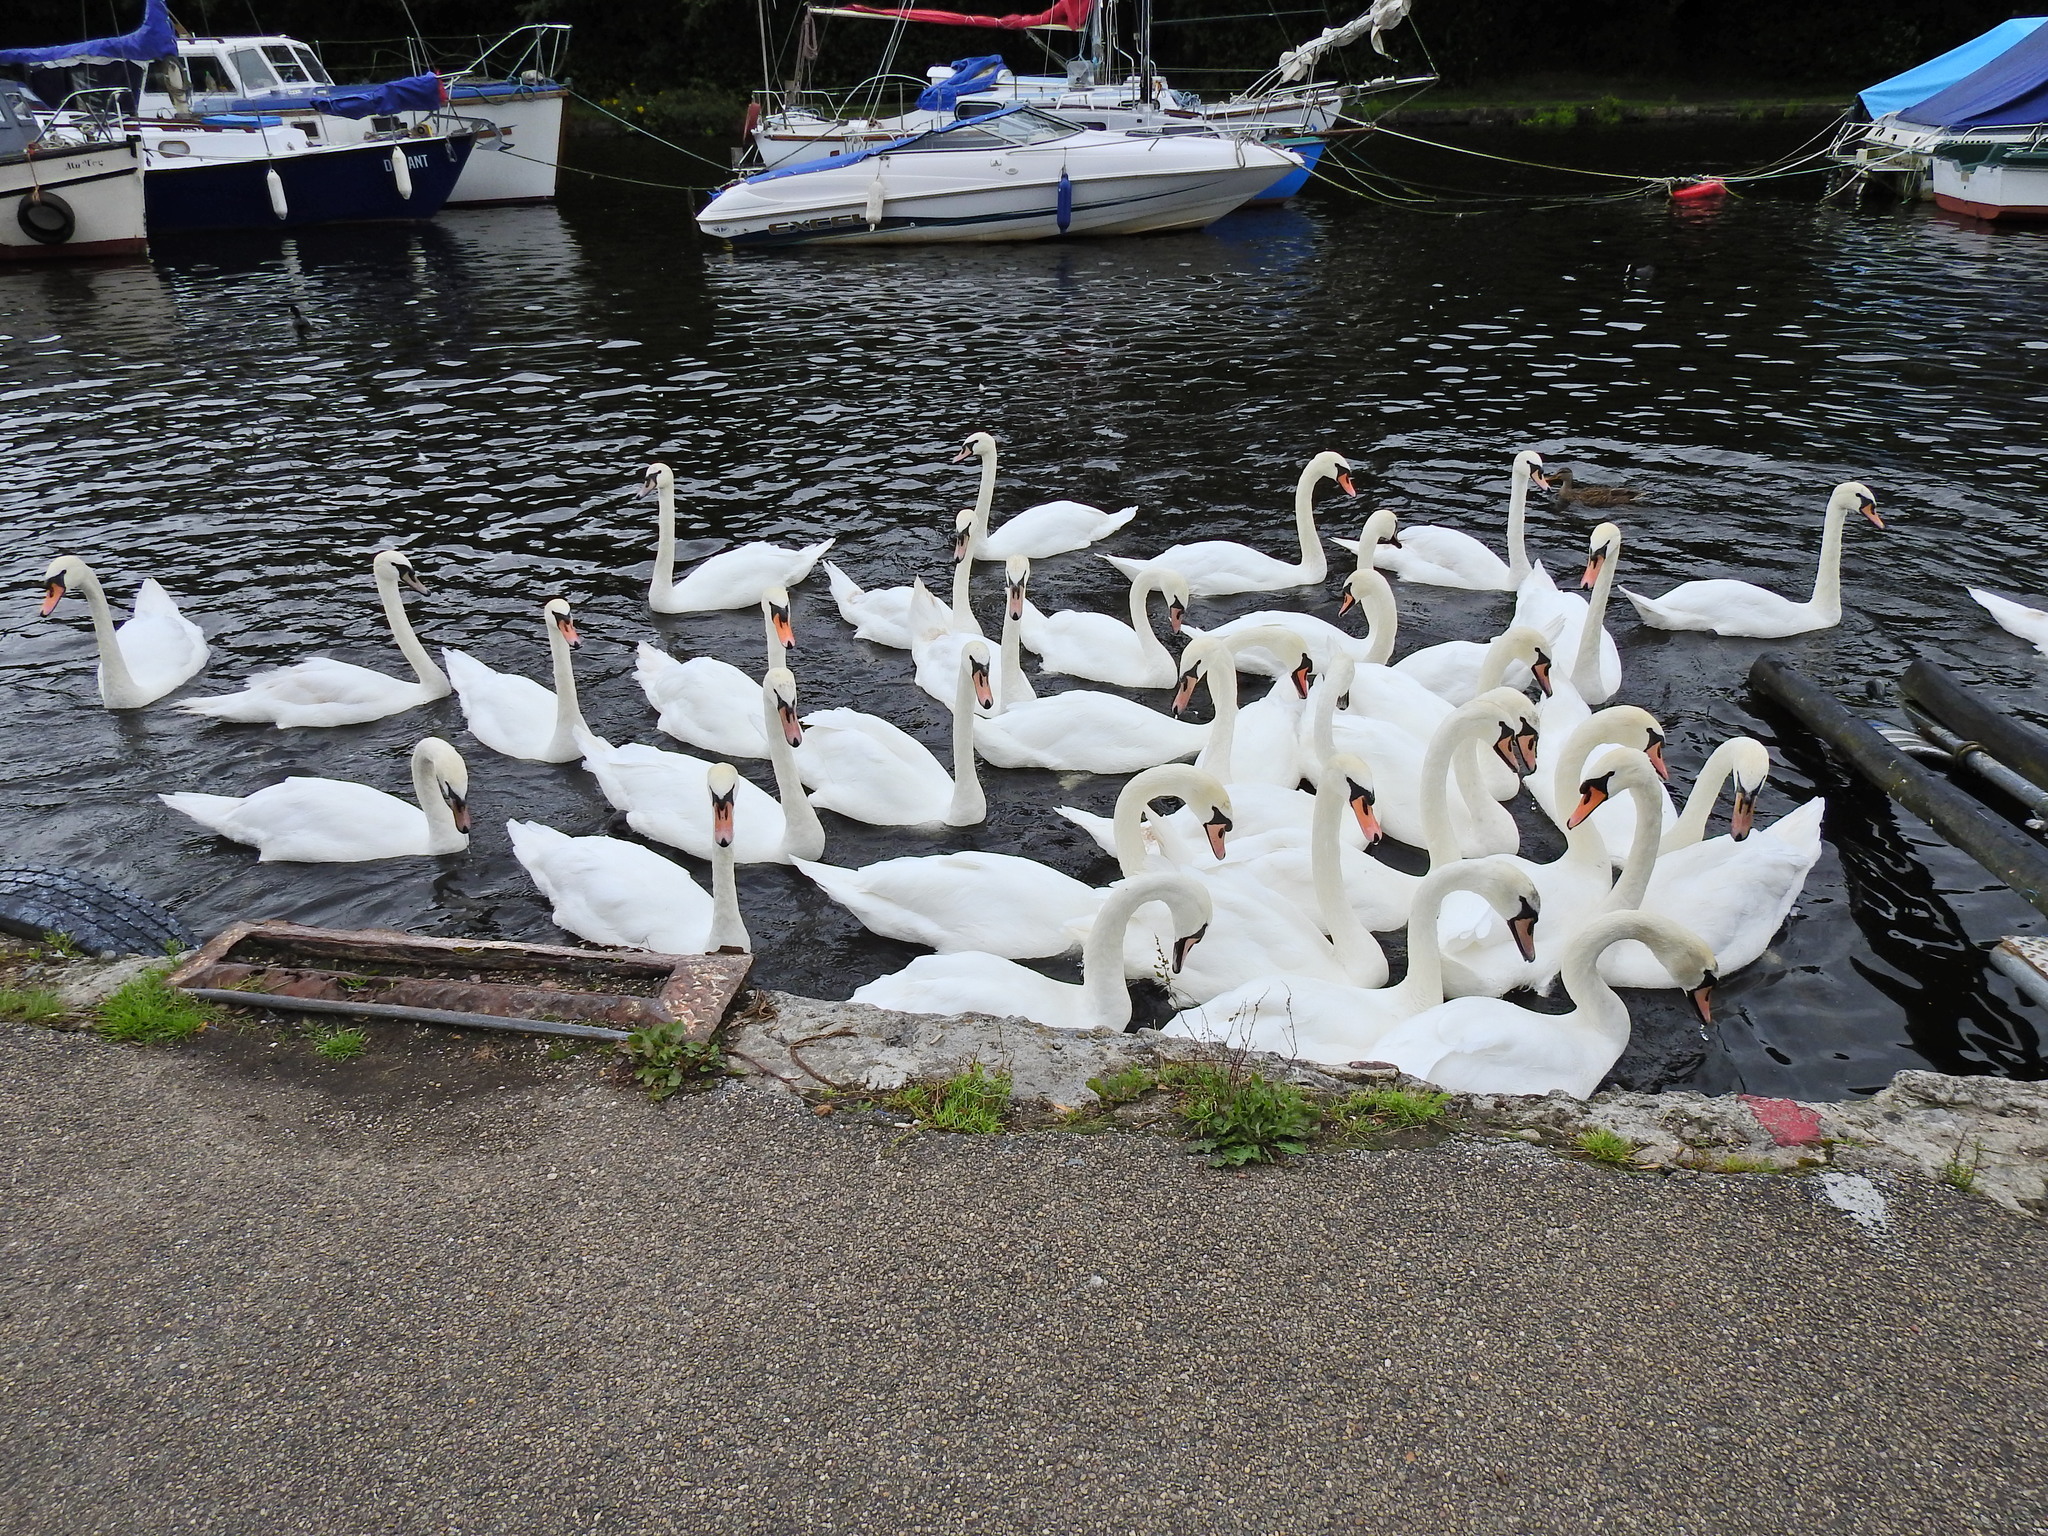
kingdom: Animalia
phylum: Chordata
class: Aves
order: Anseriformes
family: Anatidae
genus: Cygnus
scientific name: Cygnus olor
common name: Mute swan
